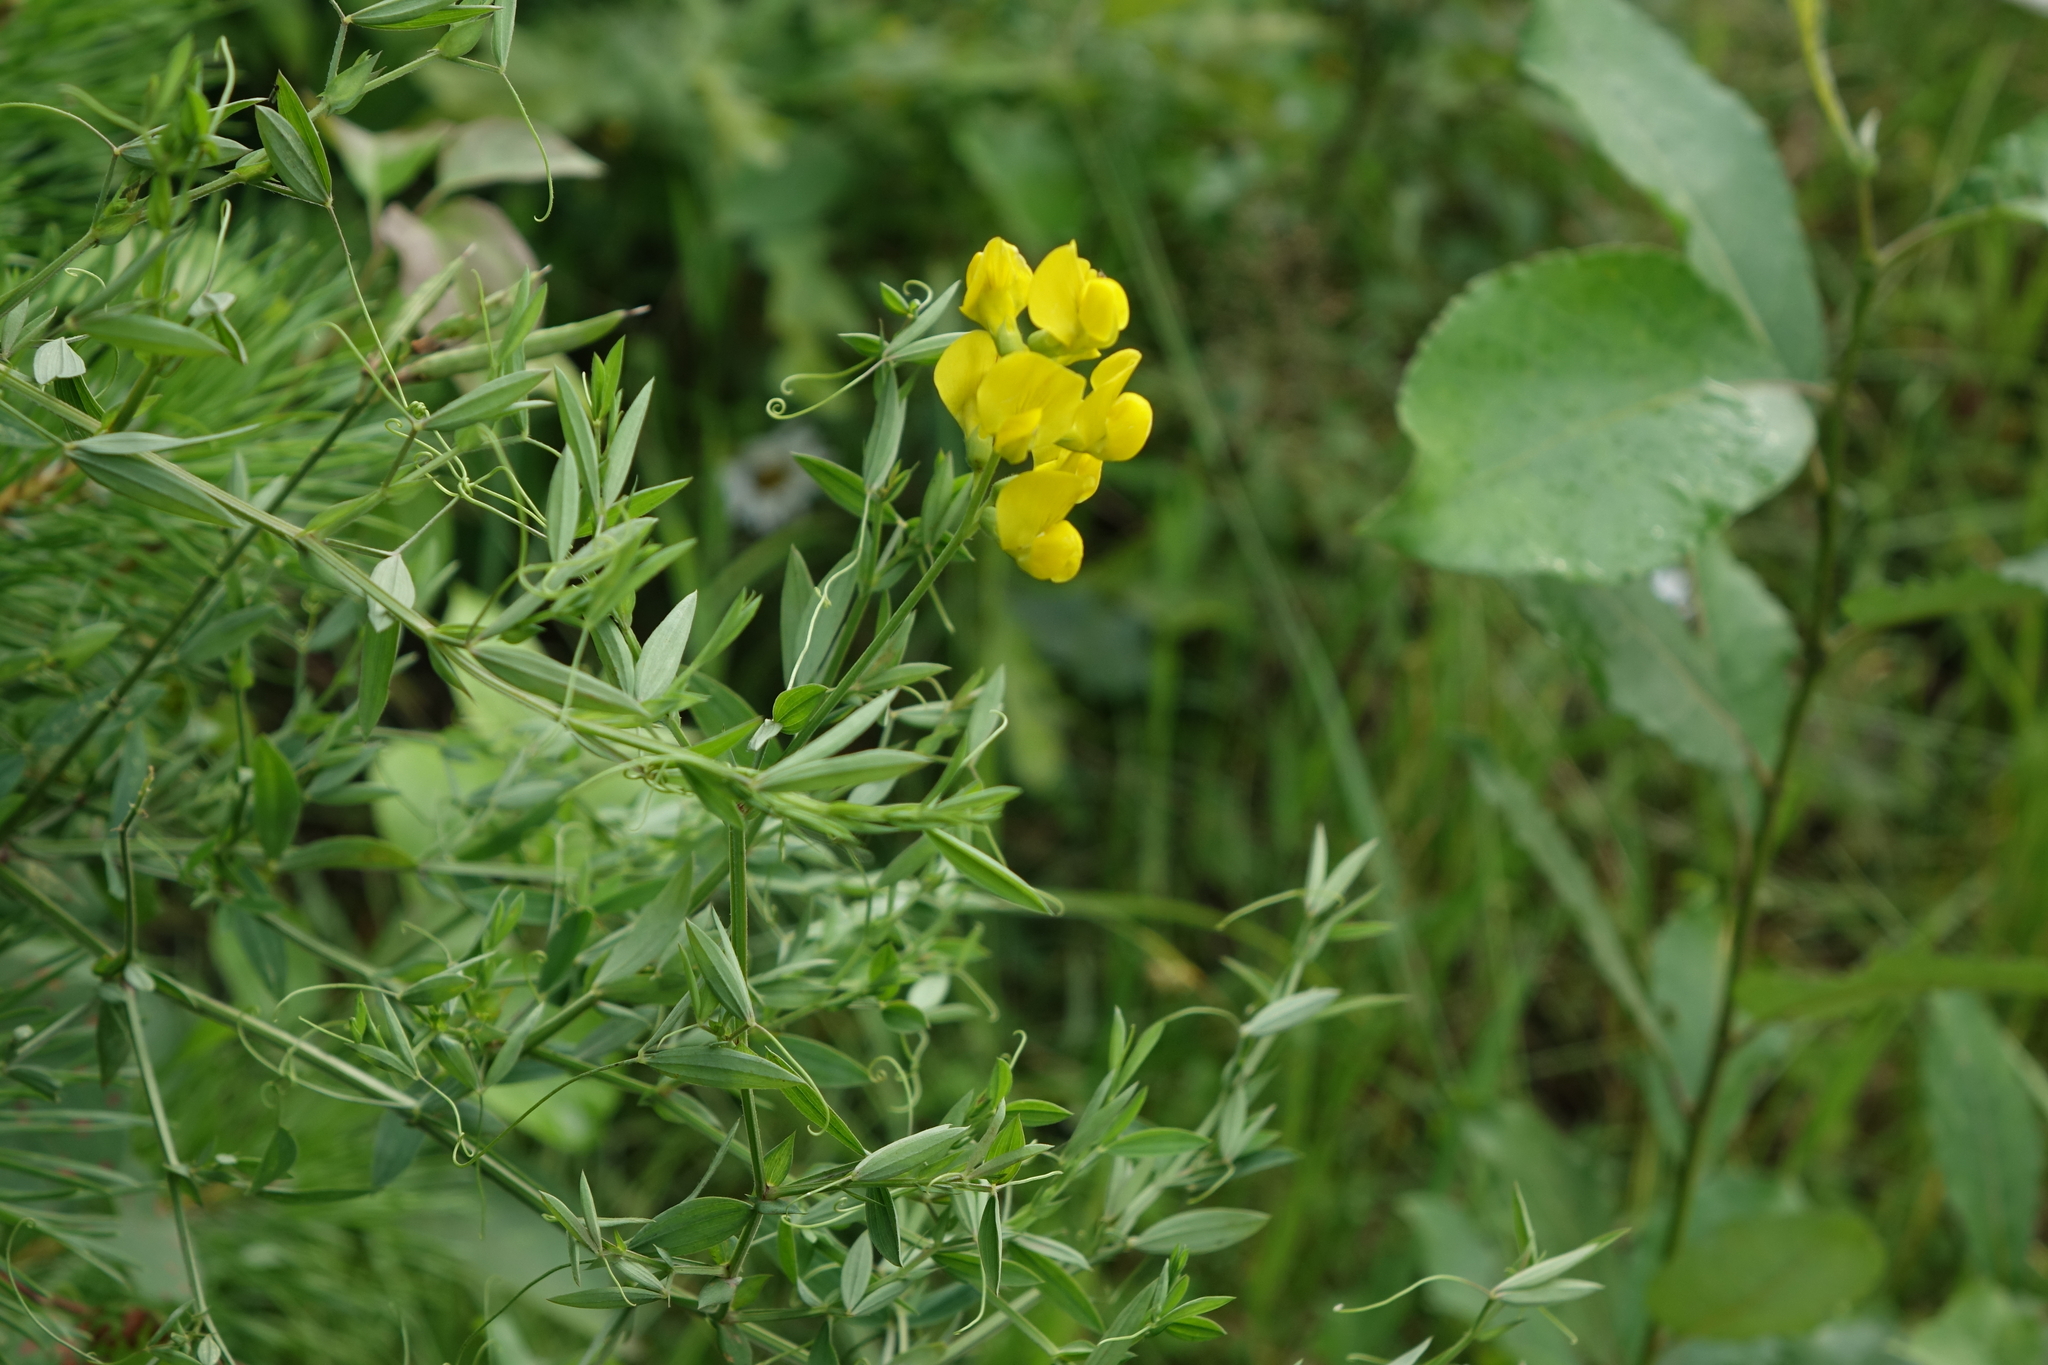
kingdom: Plantae
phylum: Tracheophyta
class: Magnoliopsida
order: Fabales
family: Fabaceae
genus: Lathyrus
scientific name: Lathyrus pratensis
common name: Meadow vetchling
